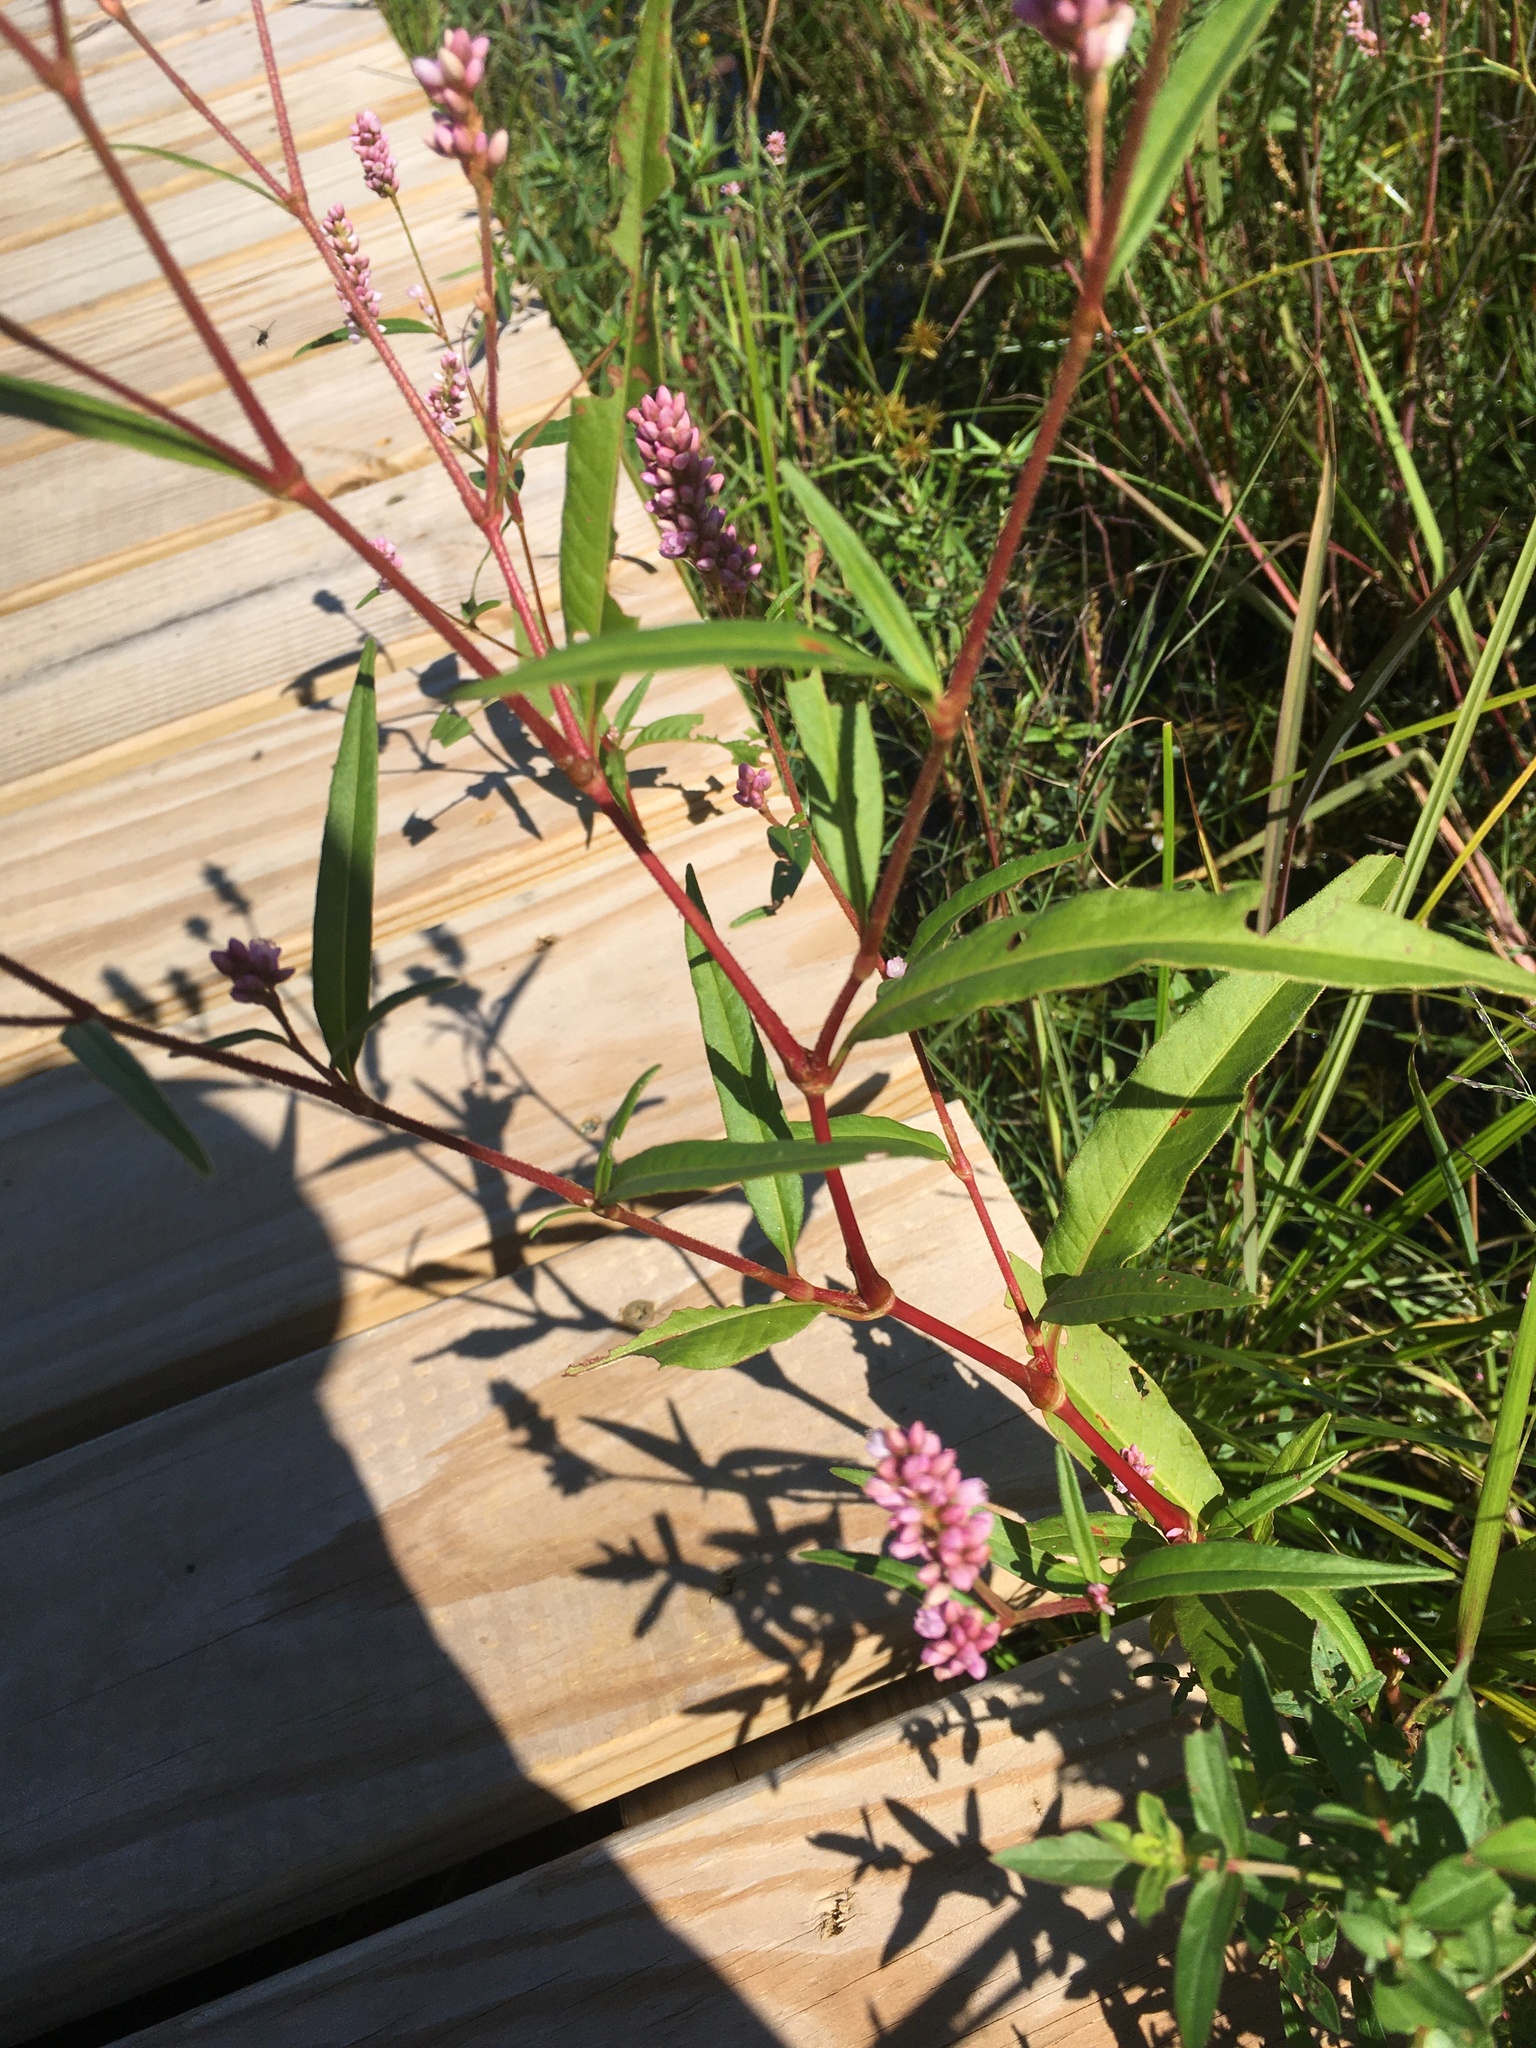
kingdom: Plantae
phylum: Tracheophyta
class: Magnoliopsida
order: Caryophyllales
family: Polygonaceae
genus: Persicaria
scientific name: Persicaria pensylvanica
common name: Pinkweed
